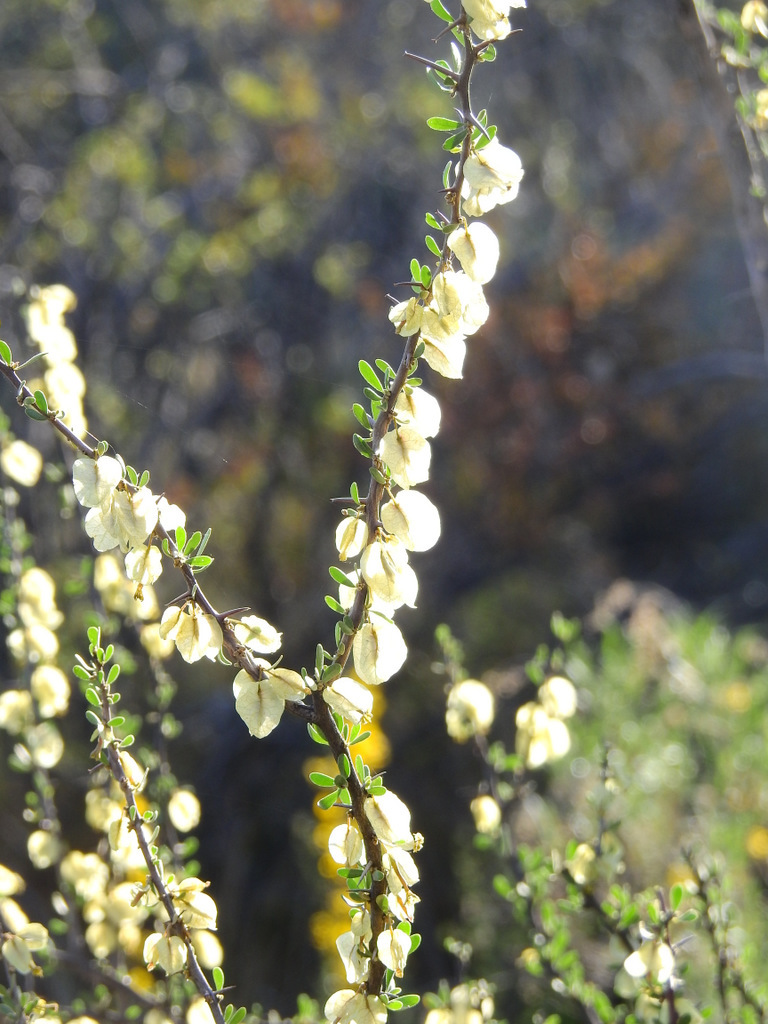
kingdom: Plantae
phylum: Tracheophyta
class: Magnoliopsida
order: Caryophyllales
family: Nyctaginaceae
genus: Bougainvillea
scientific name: Bougainvillea spinosa
